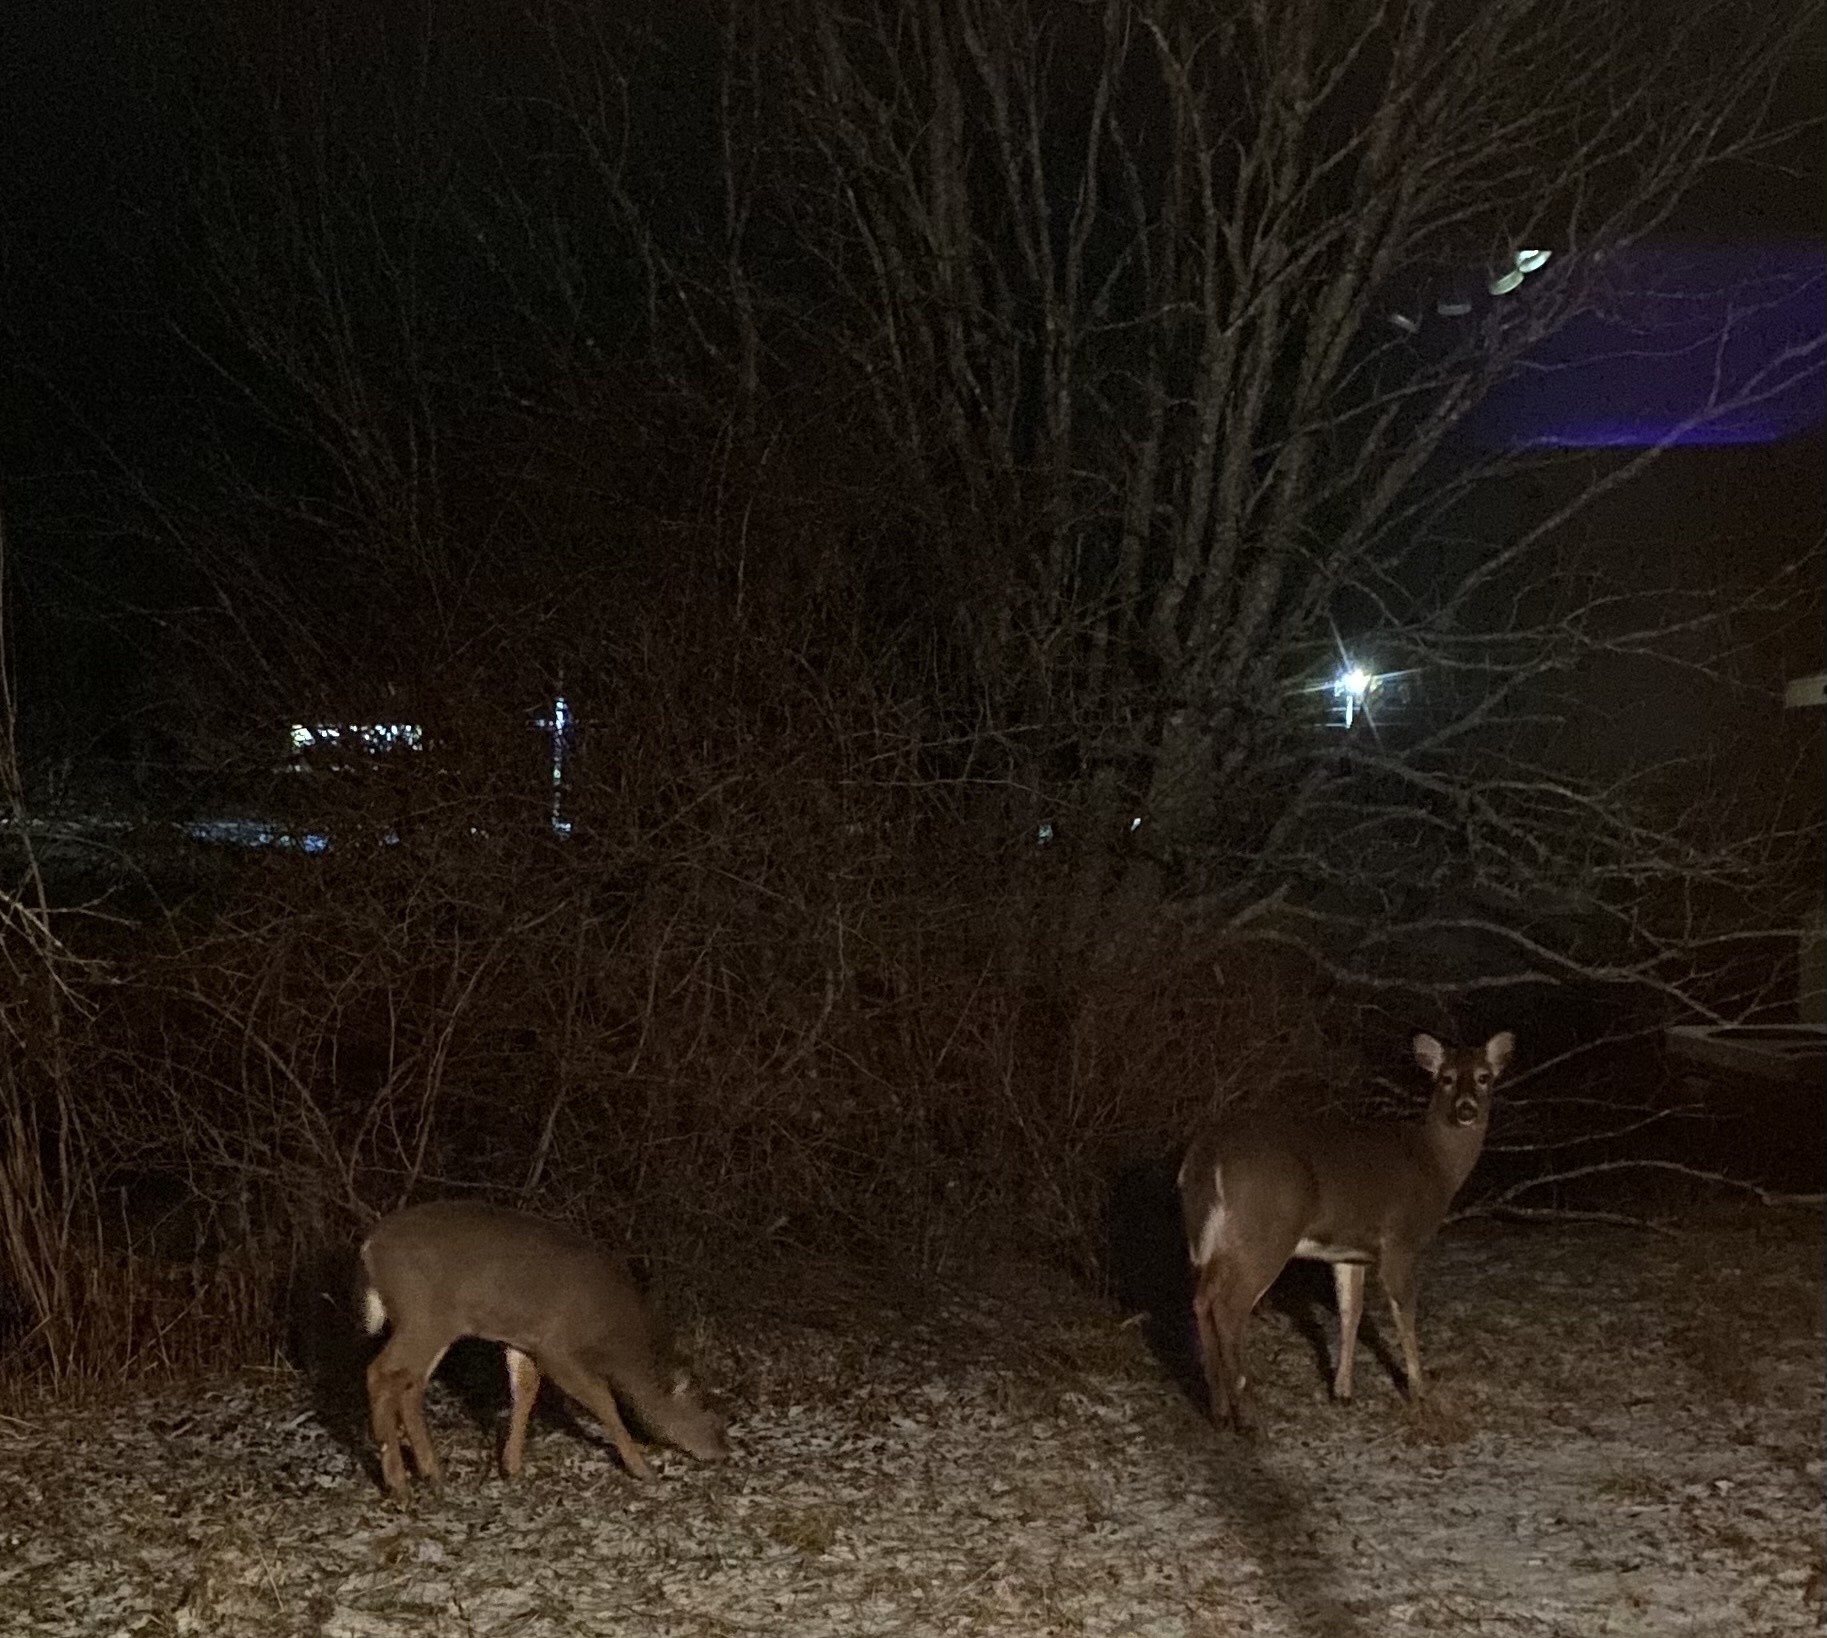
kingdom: Animalia
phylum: Chordata
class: Mammalia
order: Artiodactyla
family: Cervidae
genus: Odocoileus
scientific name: Odocoileus virginianus
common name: White-tailed deer
